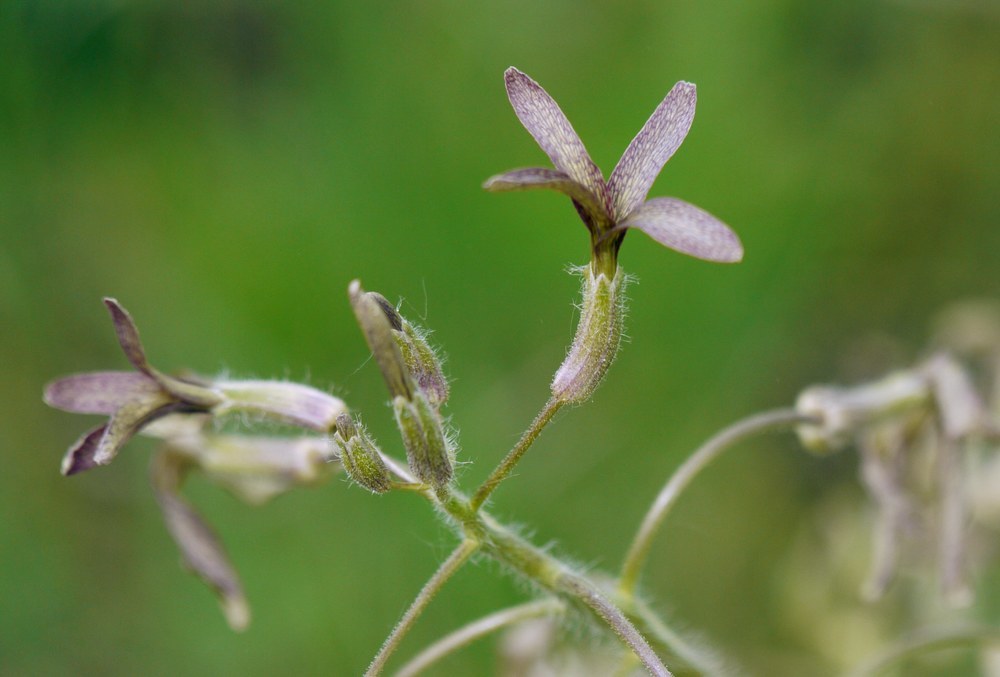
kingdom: Plantae
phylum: Tracheophyta
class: Magnoliopsida
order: Brassicales
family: Brassicaceae
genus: Hesperis
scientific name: Hesperis tristis
